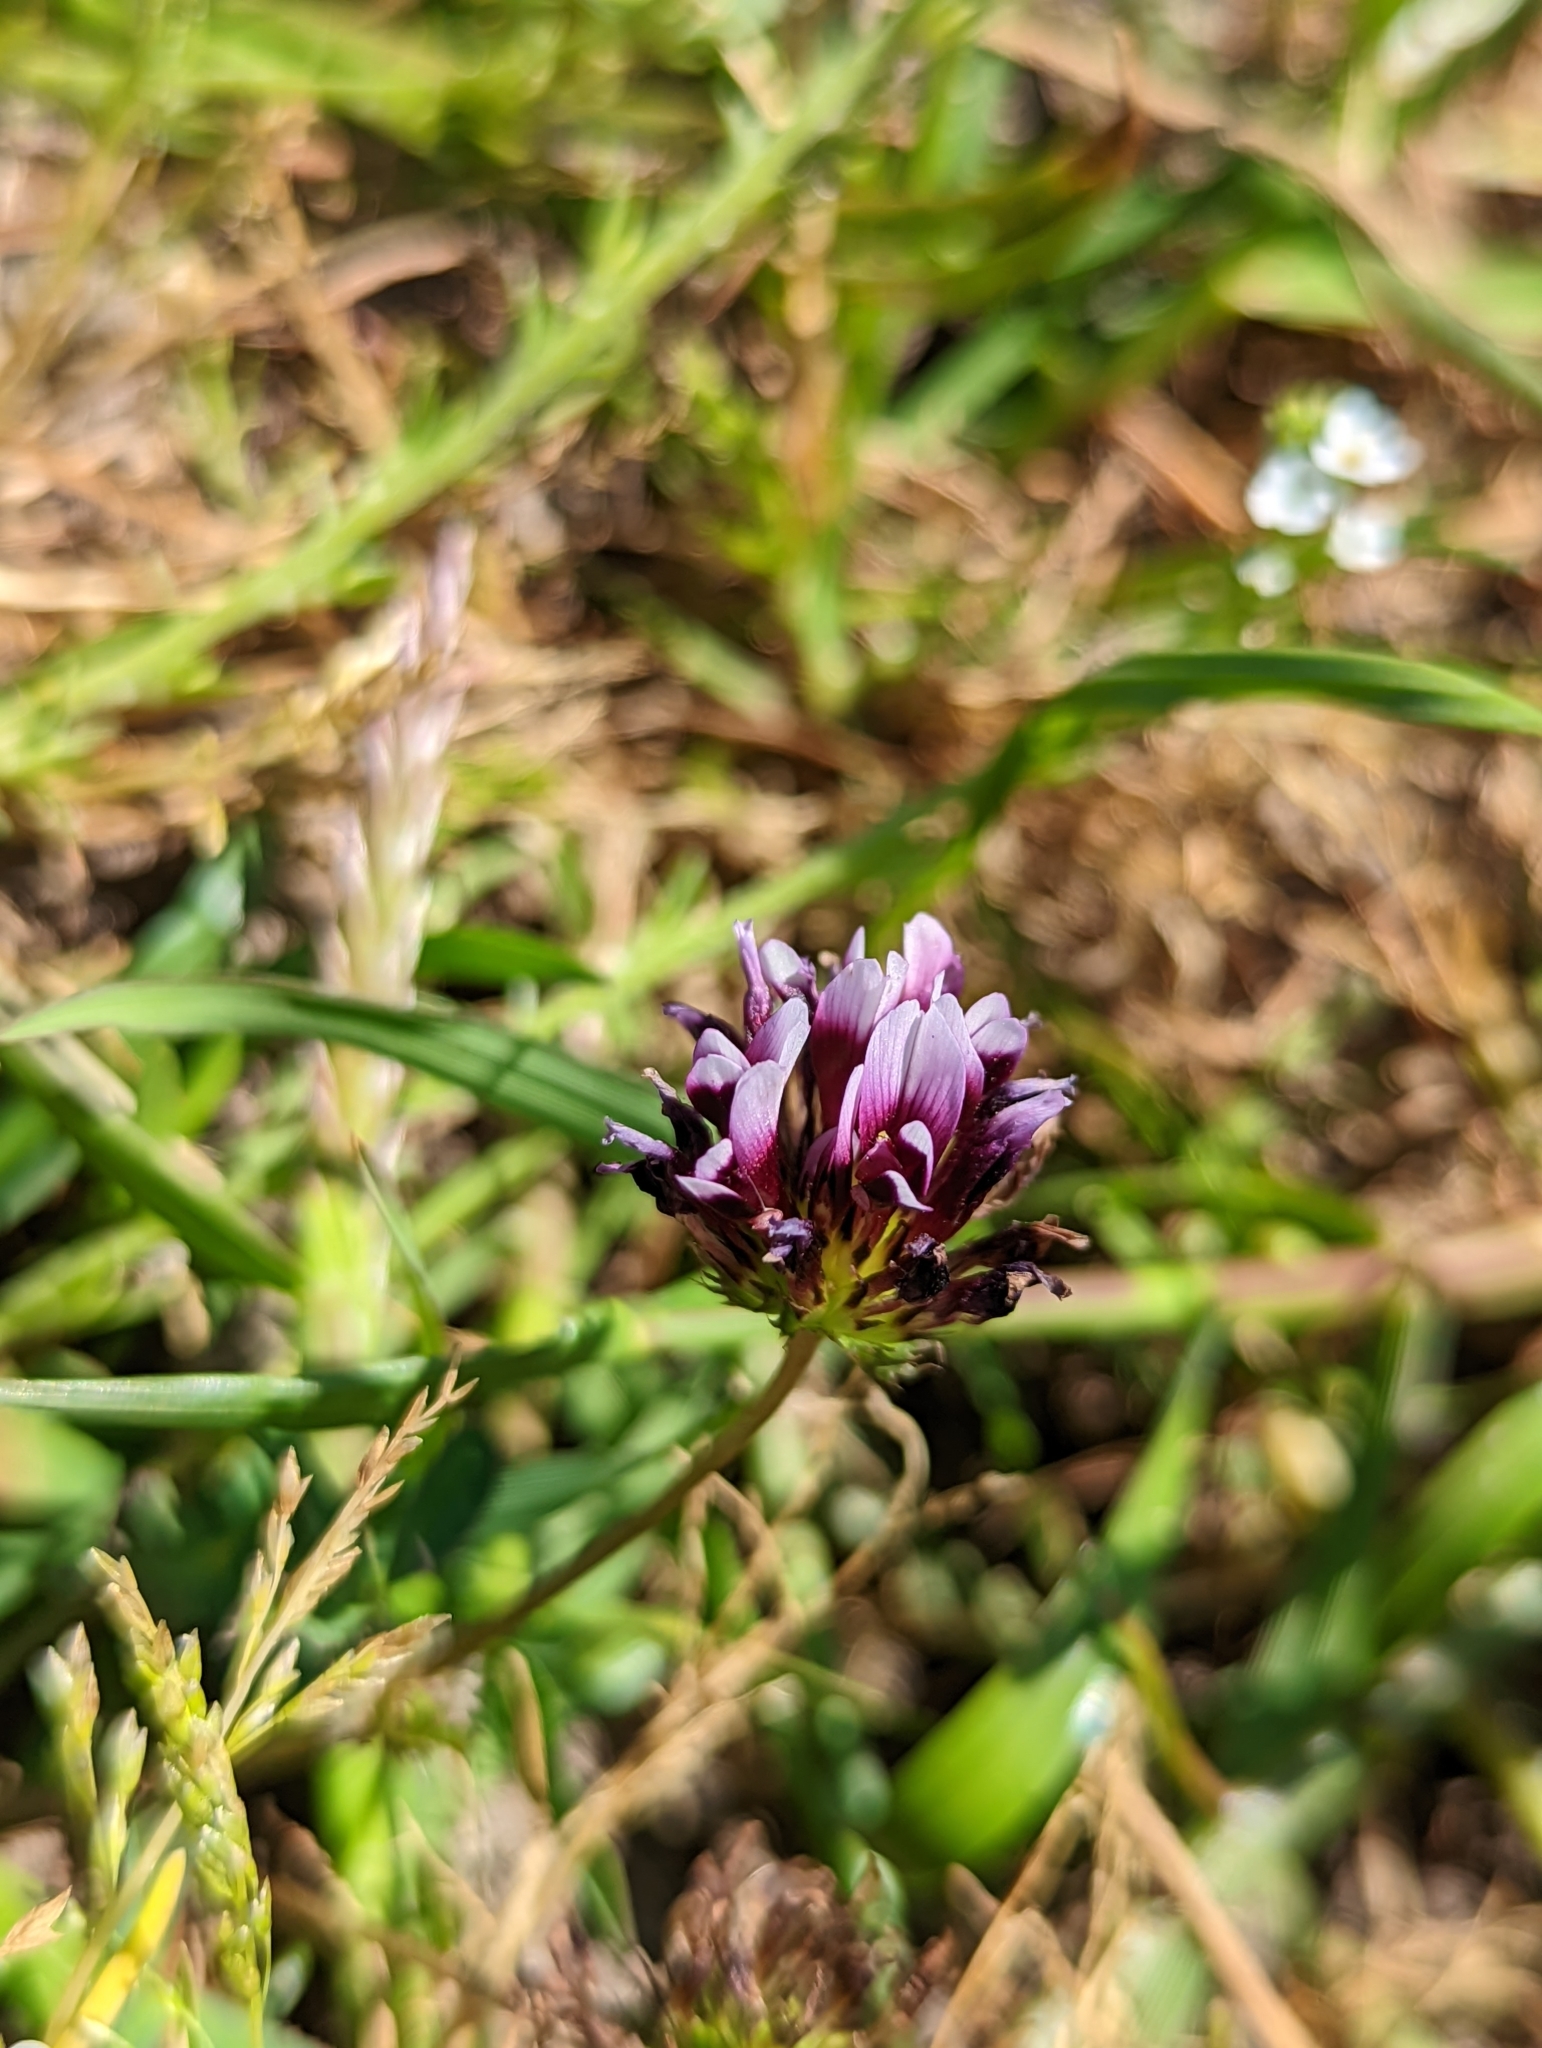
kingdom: Plantae
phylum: Tracheophyta
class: Magnoliopsida
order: Fabales
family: Fabaceae
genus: Trifolium
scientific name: Trifolium variegatum
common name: Whitetip clover
